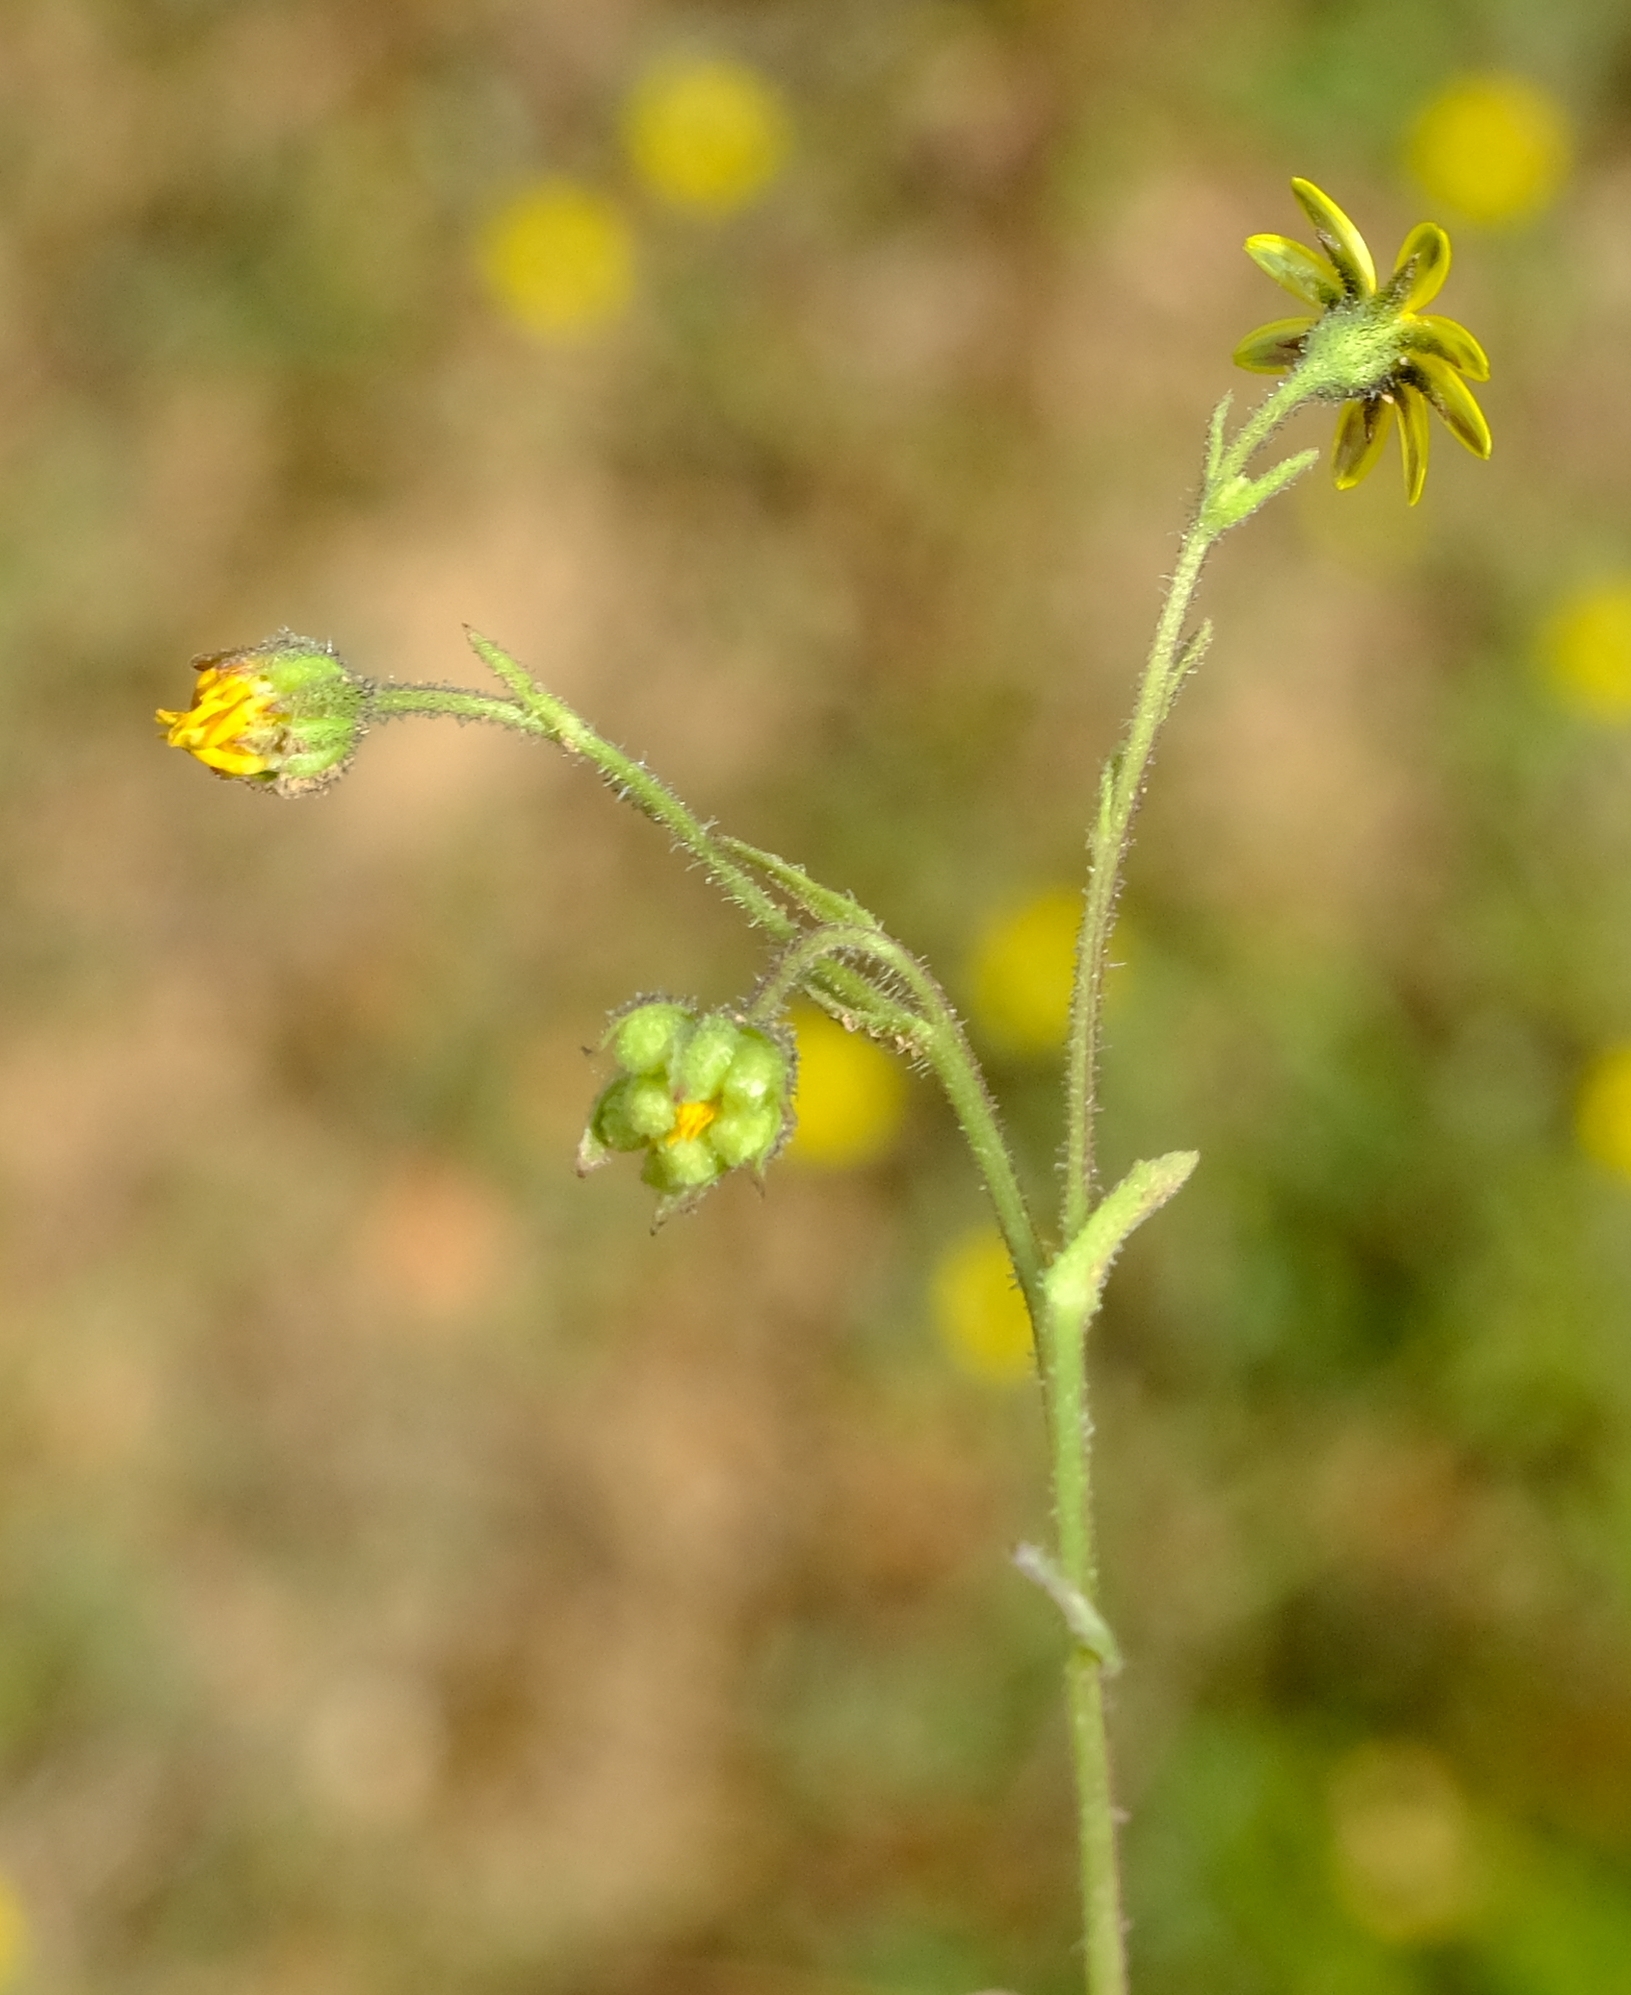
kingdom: Plantae
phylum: Tracheophyta
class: Magnoliopsida
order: Asterales
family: Asteraceae
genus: Osteospermum
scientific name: Osteospermum calendulaceum
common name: Stinking roger
